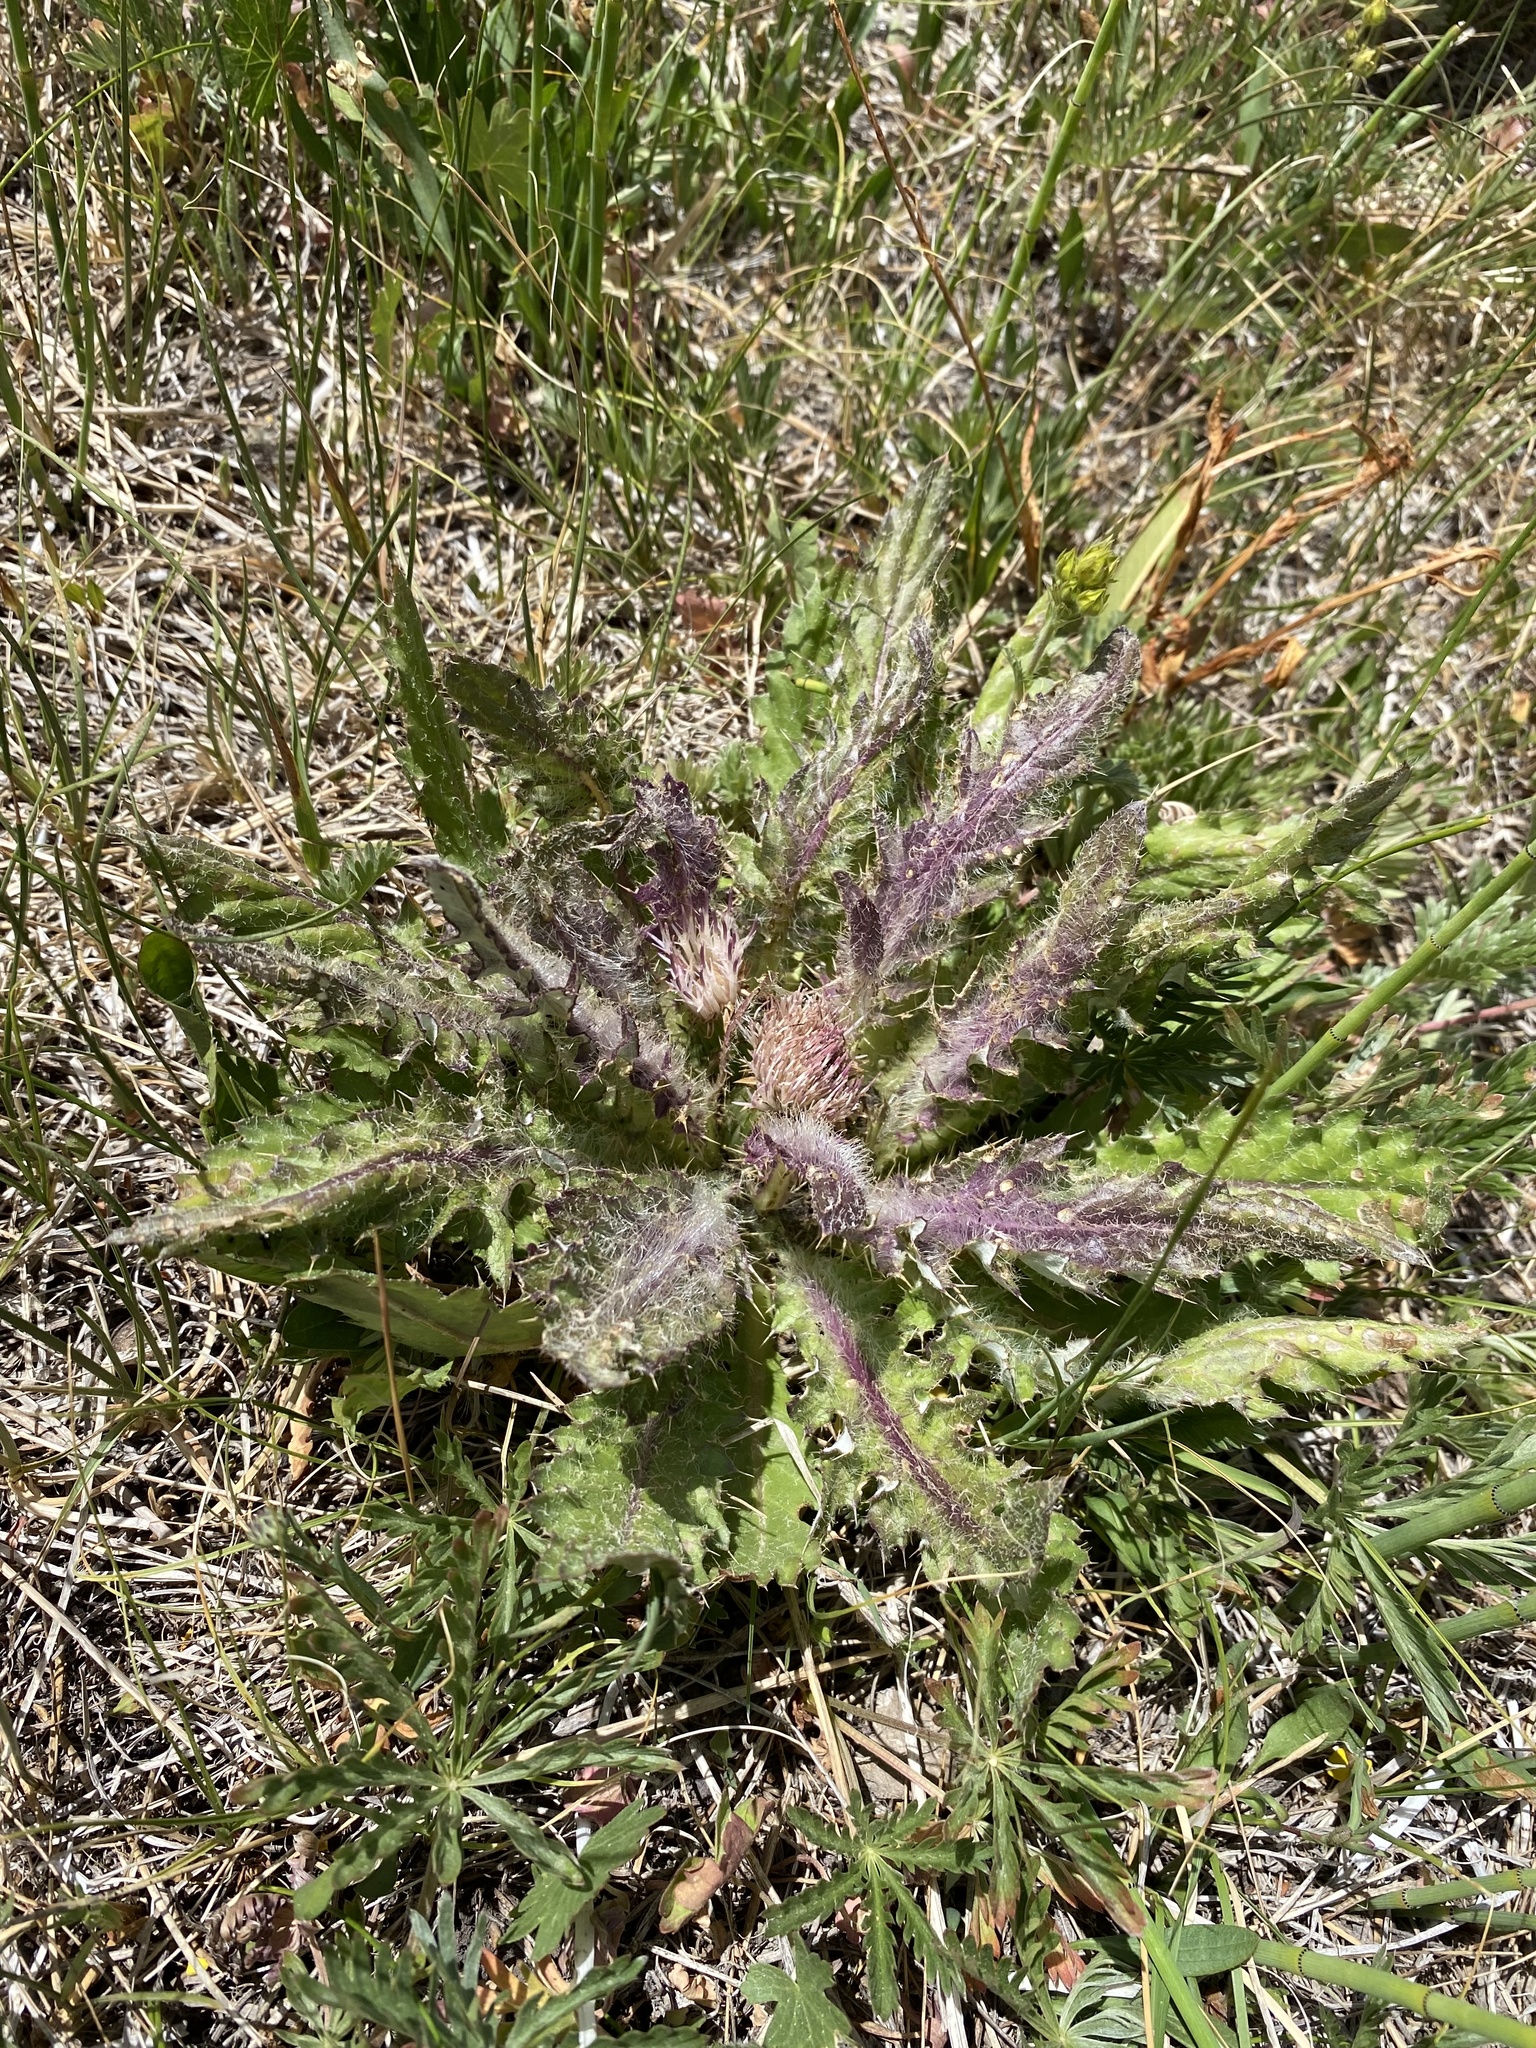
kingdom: Plantae
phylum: Tracheophyta
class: Magnoliopsida
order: Asterales
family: Asteraceae
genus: Cirsium
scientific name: Cirsium scariosum
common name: Meadow thistle
